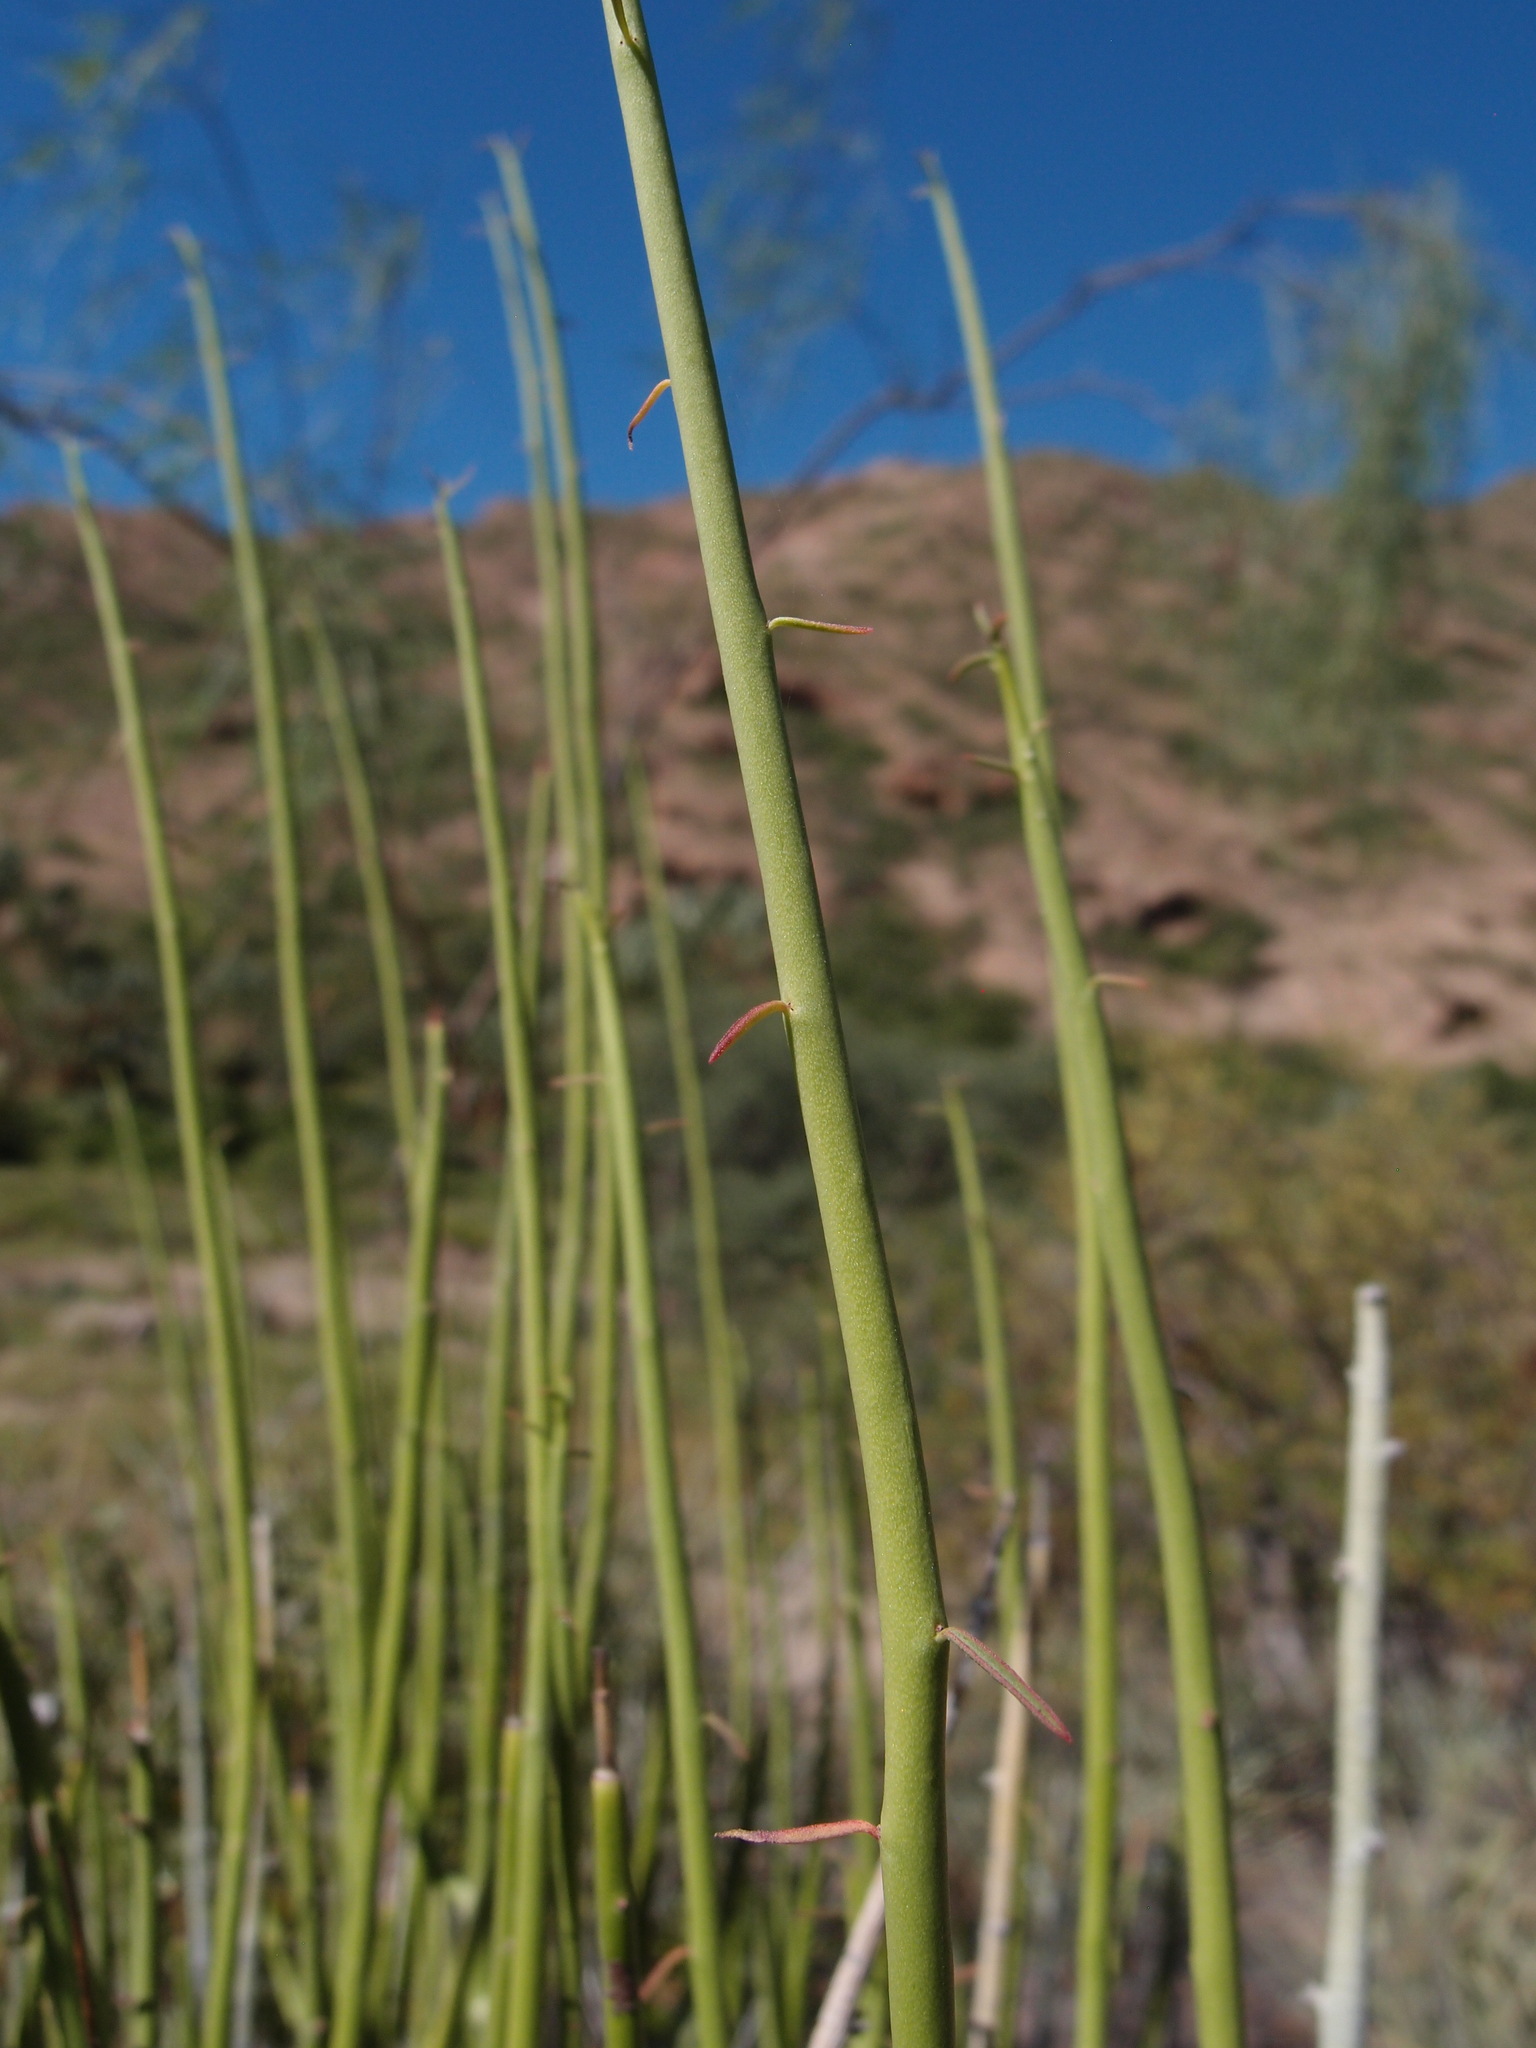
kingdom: Plantae
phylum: Tracheophyta
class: Magnoliopsida
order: Malpighiales
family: Euphorbiaceae
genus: Euphorbia
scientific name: Euphorbia ceroderma
